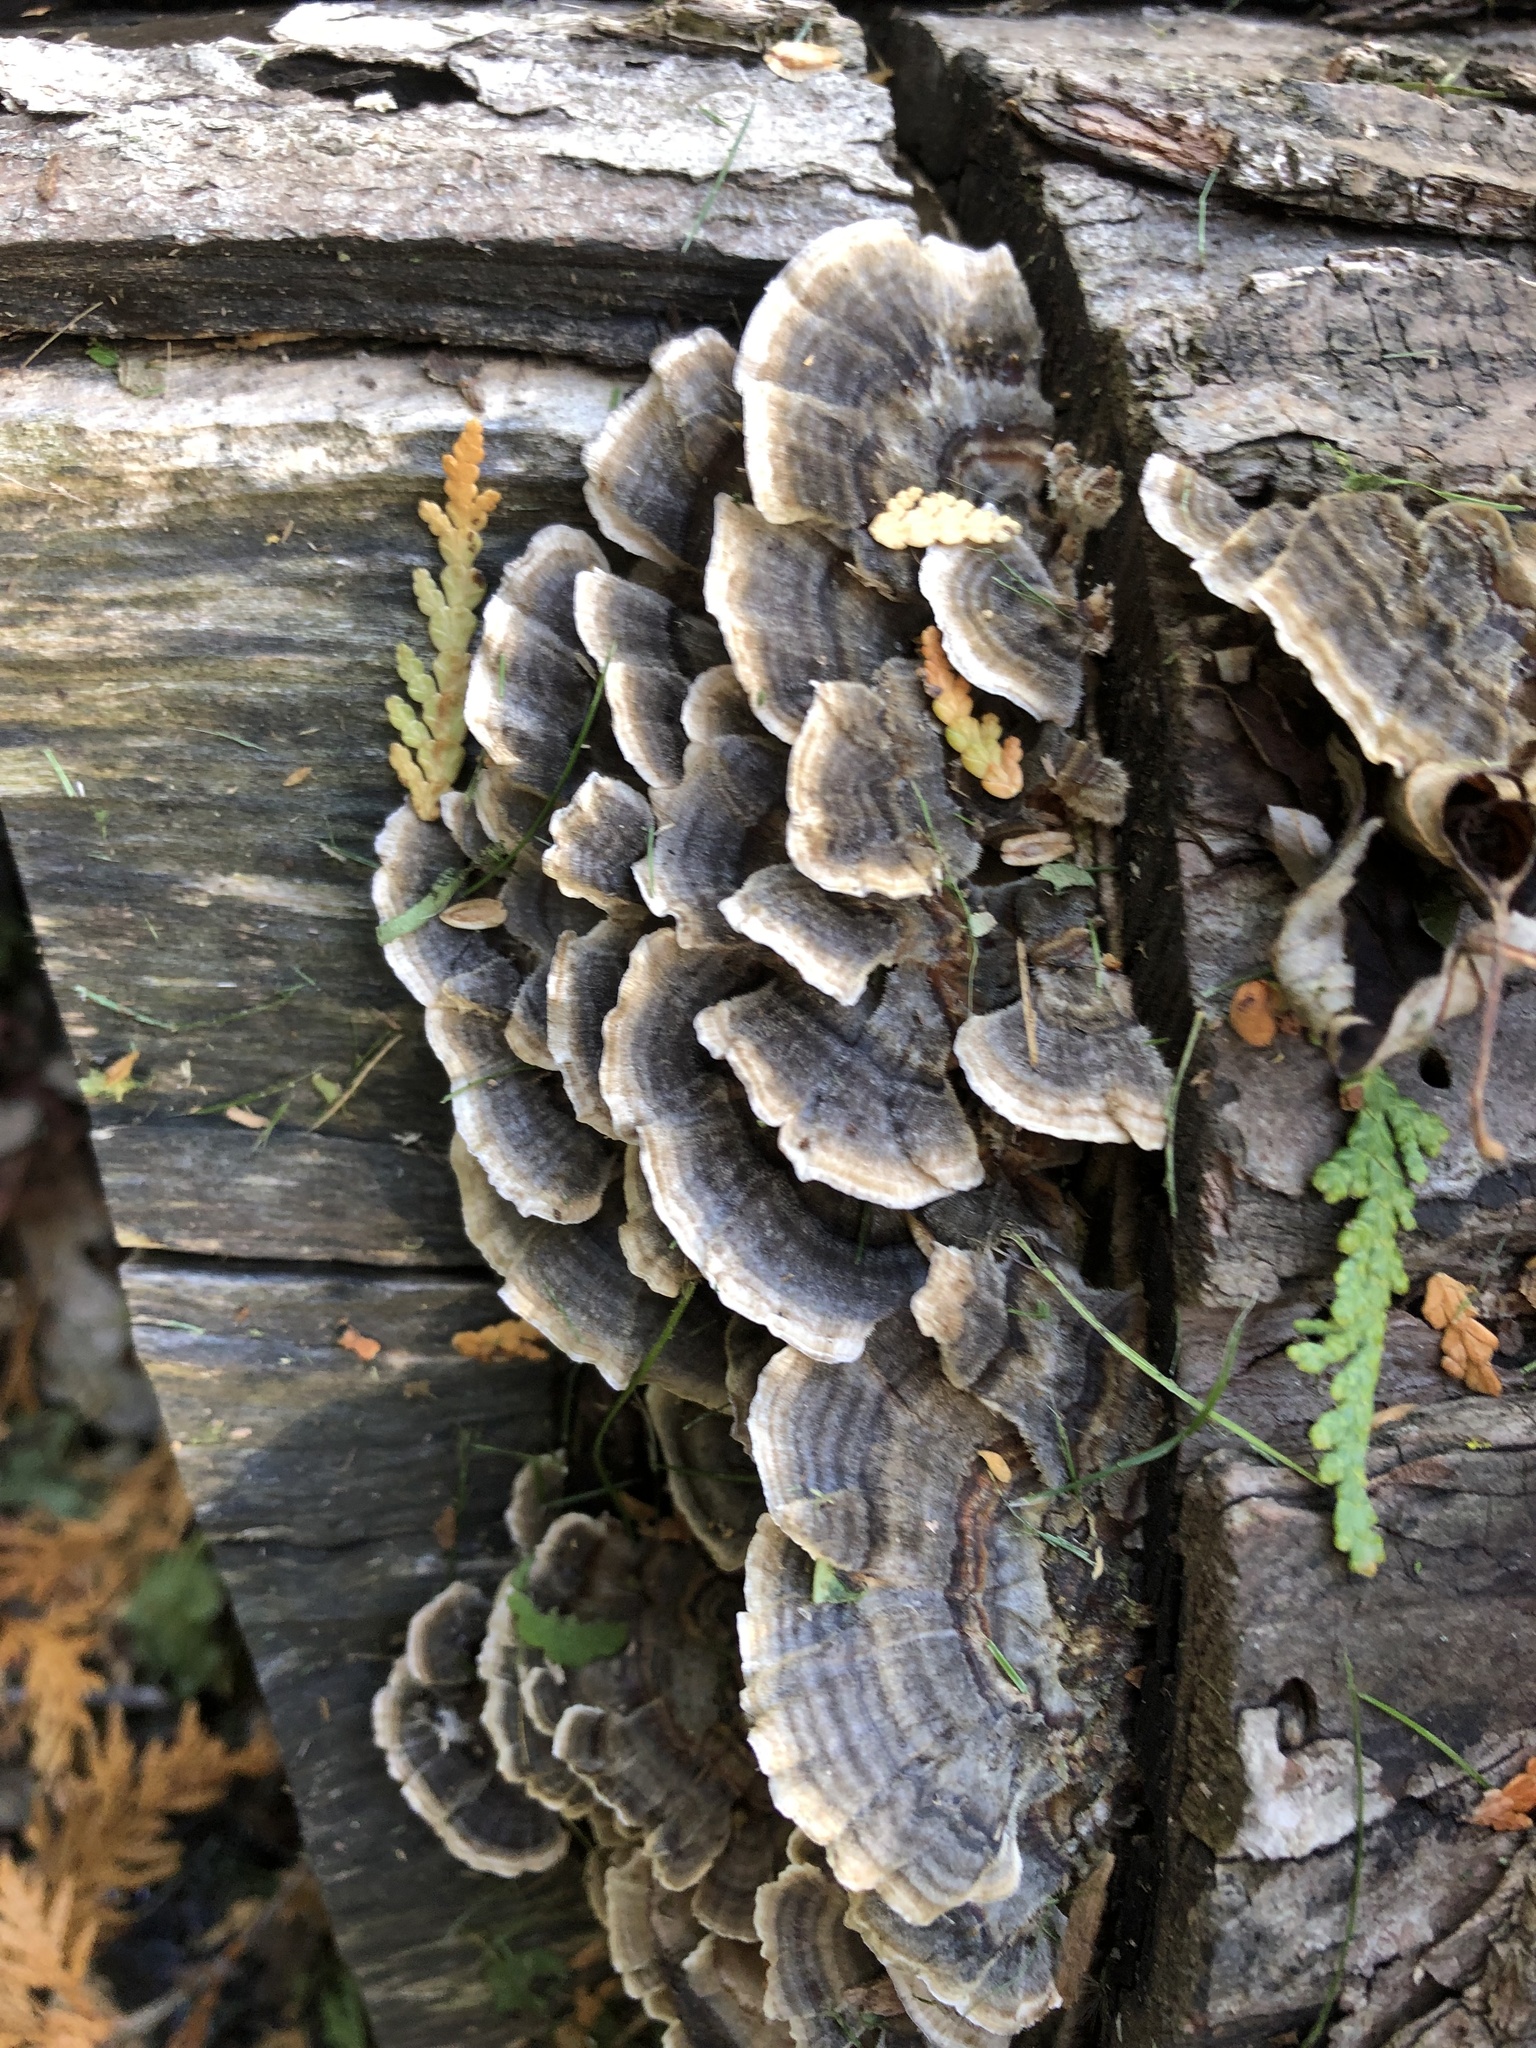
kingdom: Fungi
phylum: Basidiomycota
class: Agaricomycetes
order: Polyporales
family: Polyporaceae
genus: Trametes
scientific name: Trametes versicolor
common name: Turkeytail
